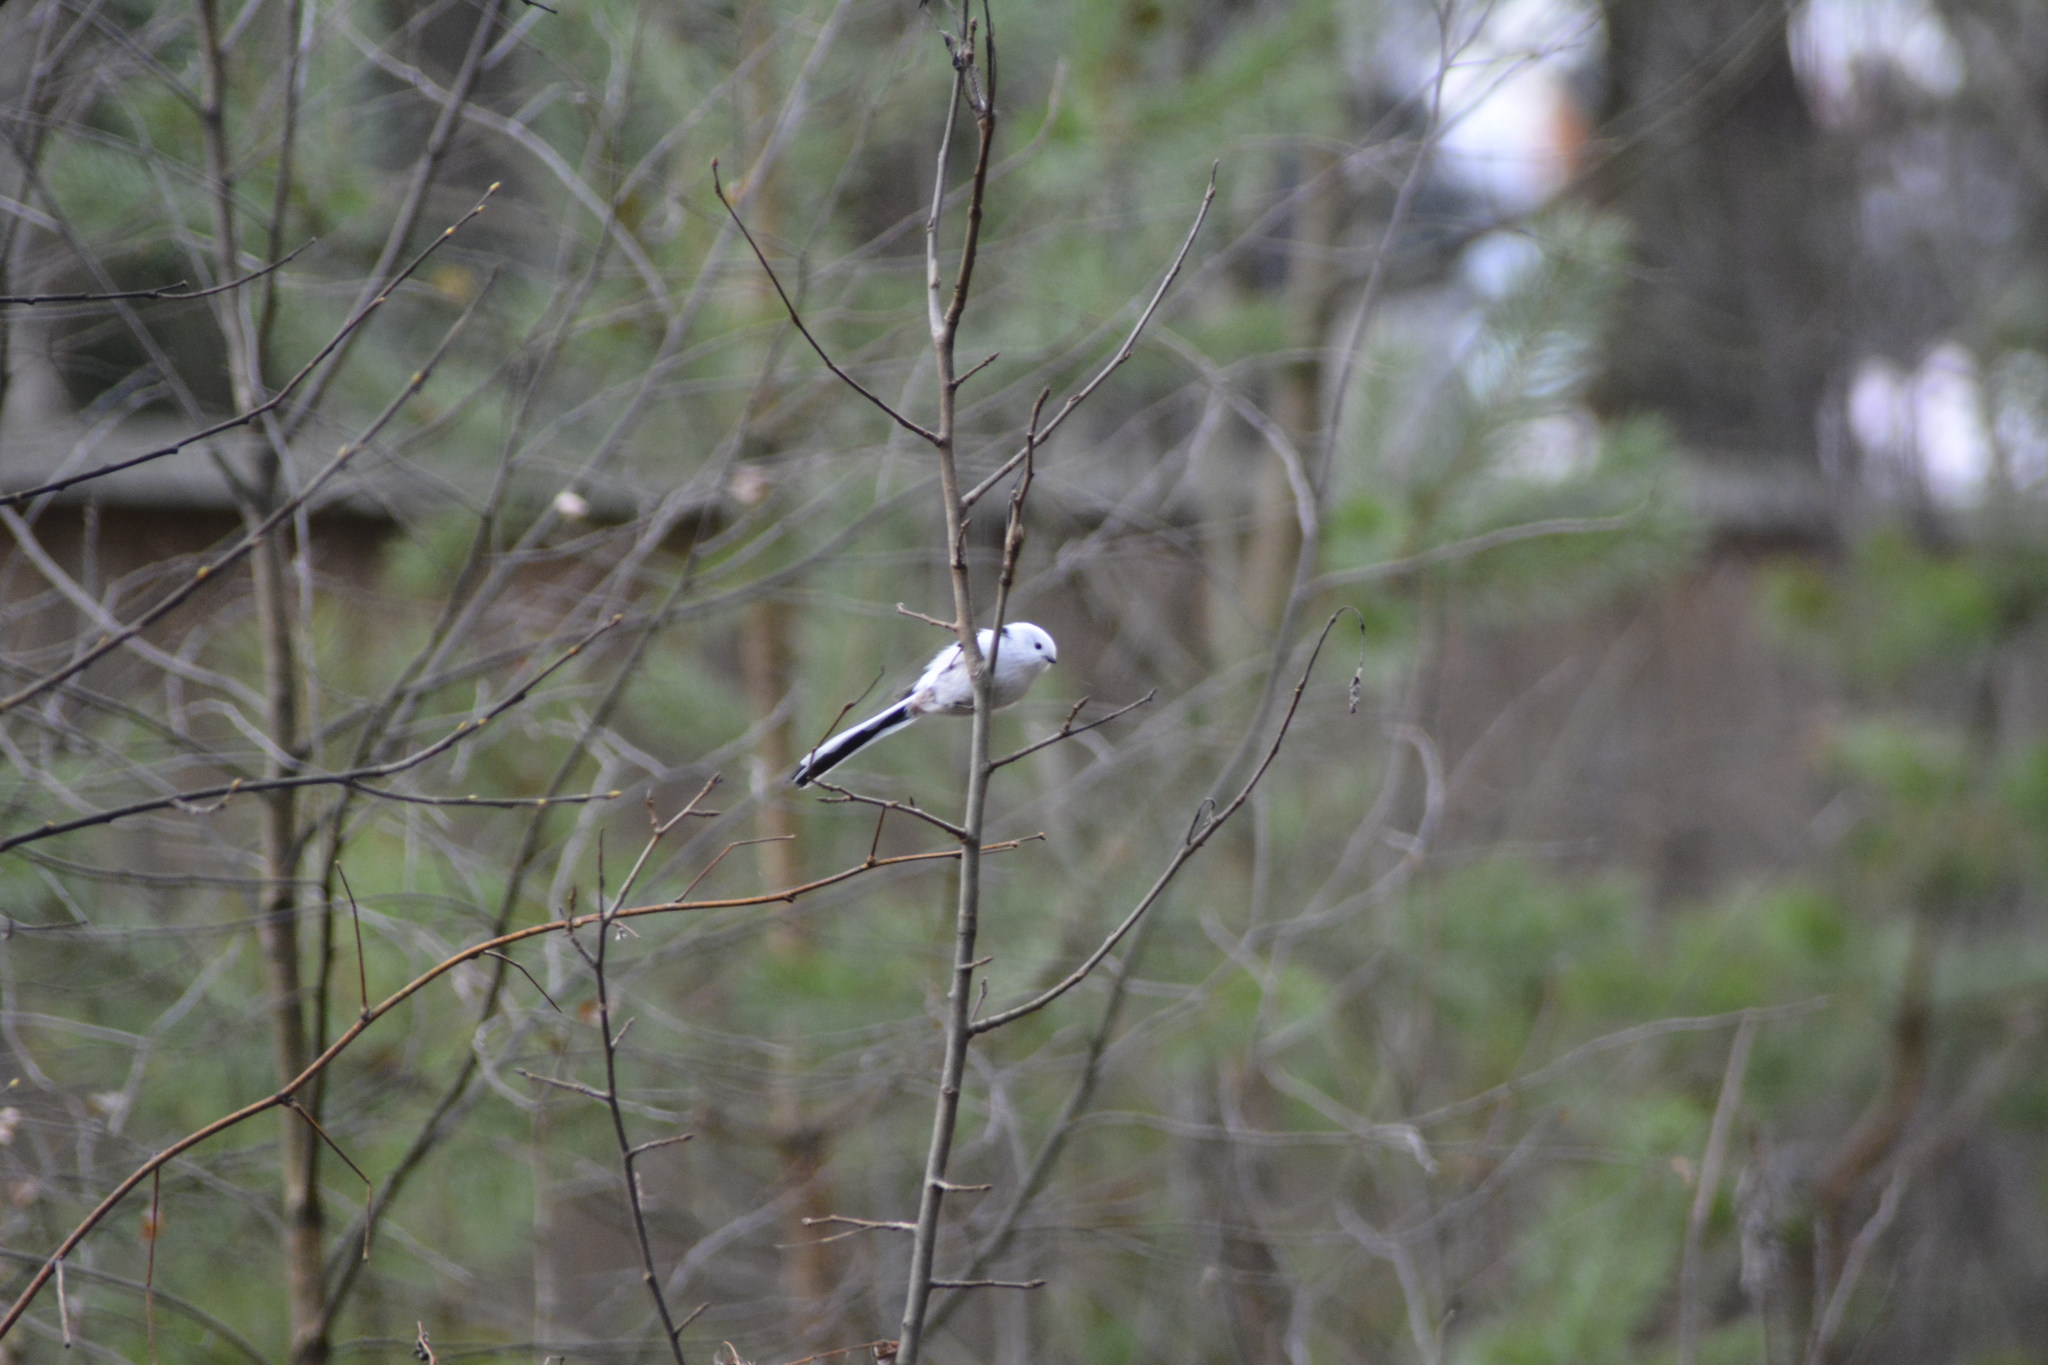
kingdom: Animalia
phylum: Chordata
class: Aves
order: Passeriformes
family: Aegithalidae
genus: Aegithalos
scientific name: Aegithalos caudatus
